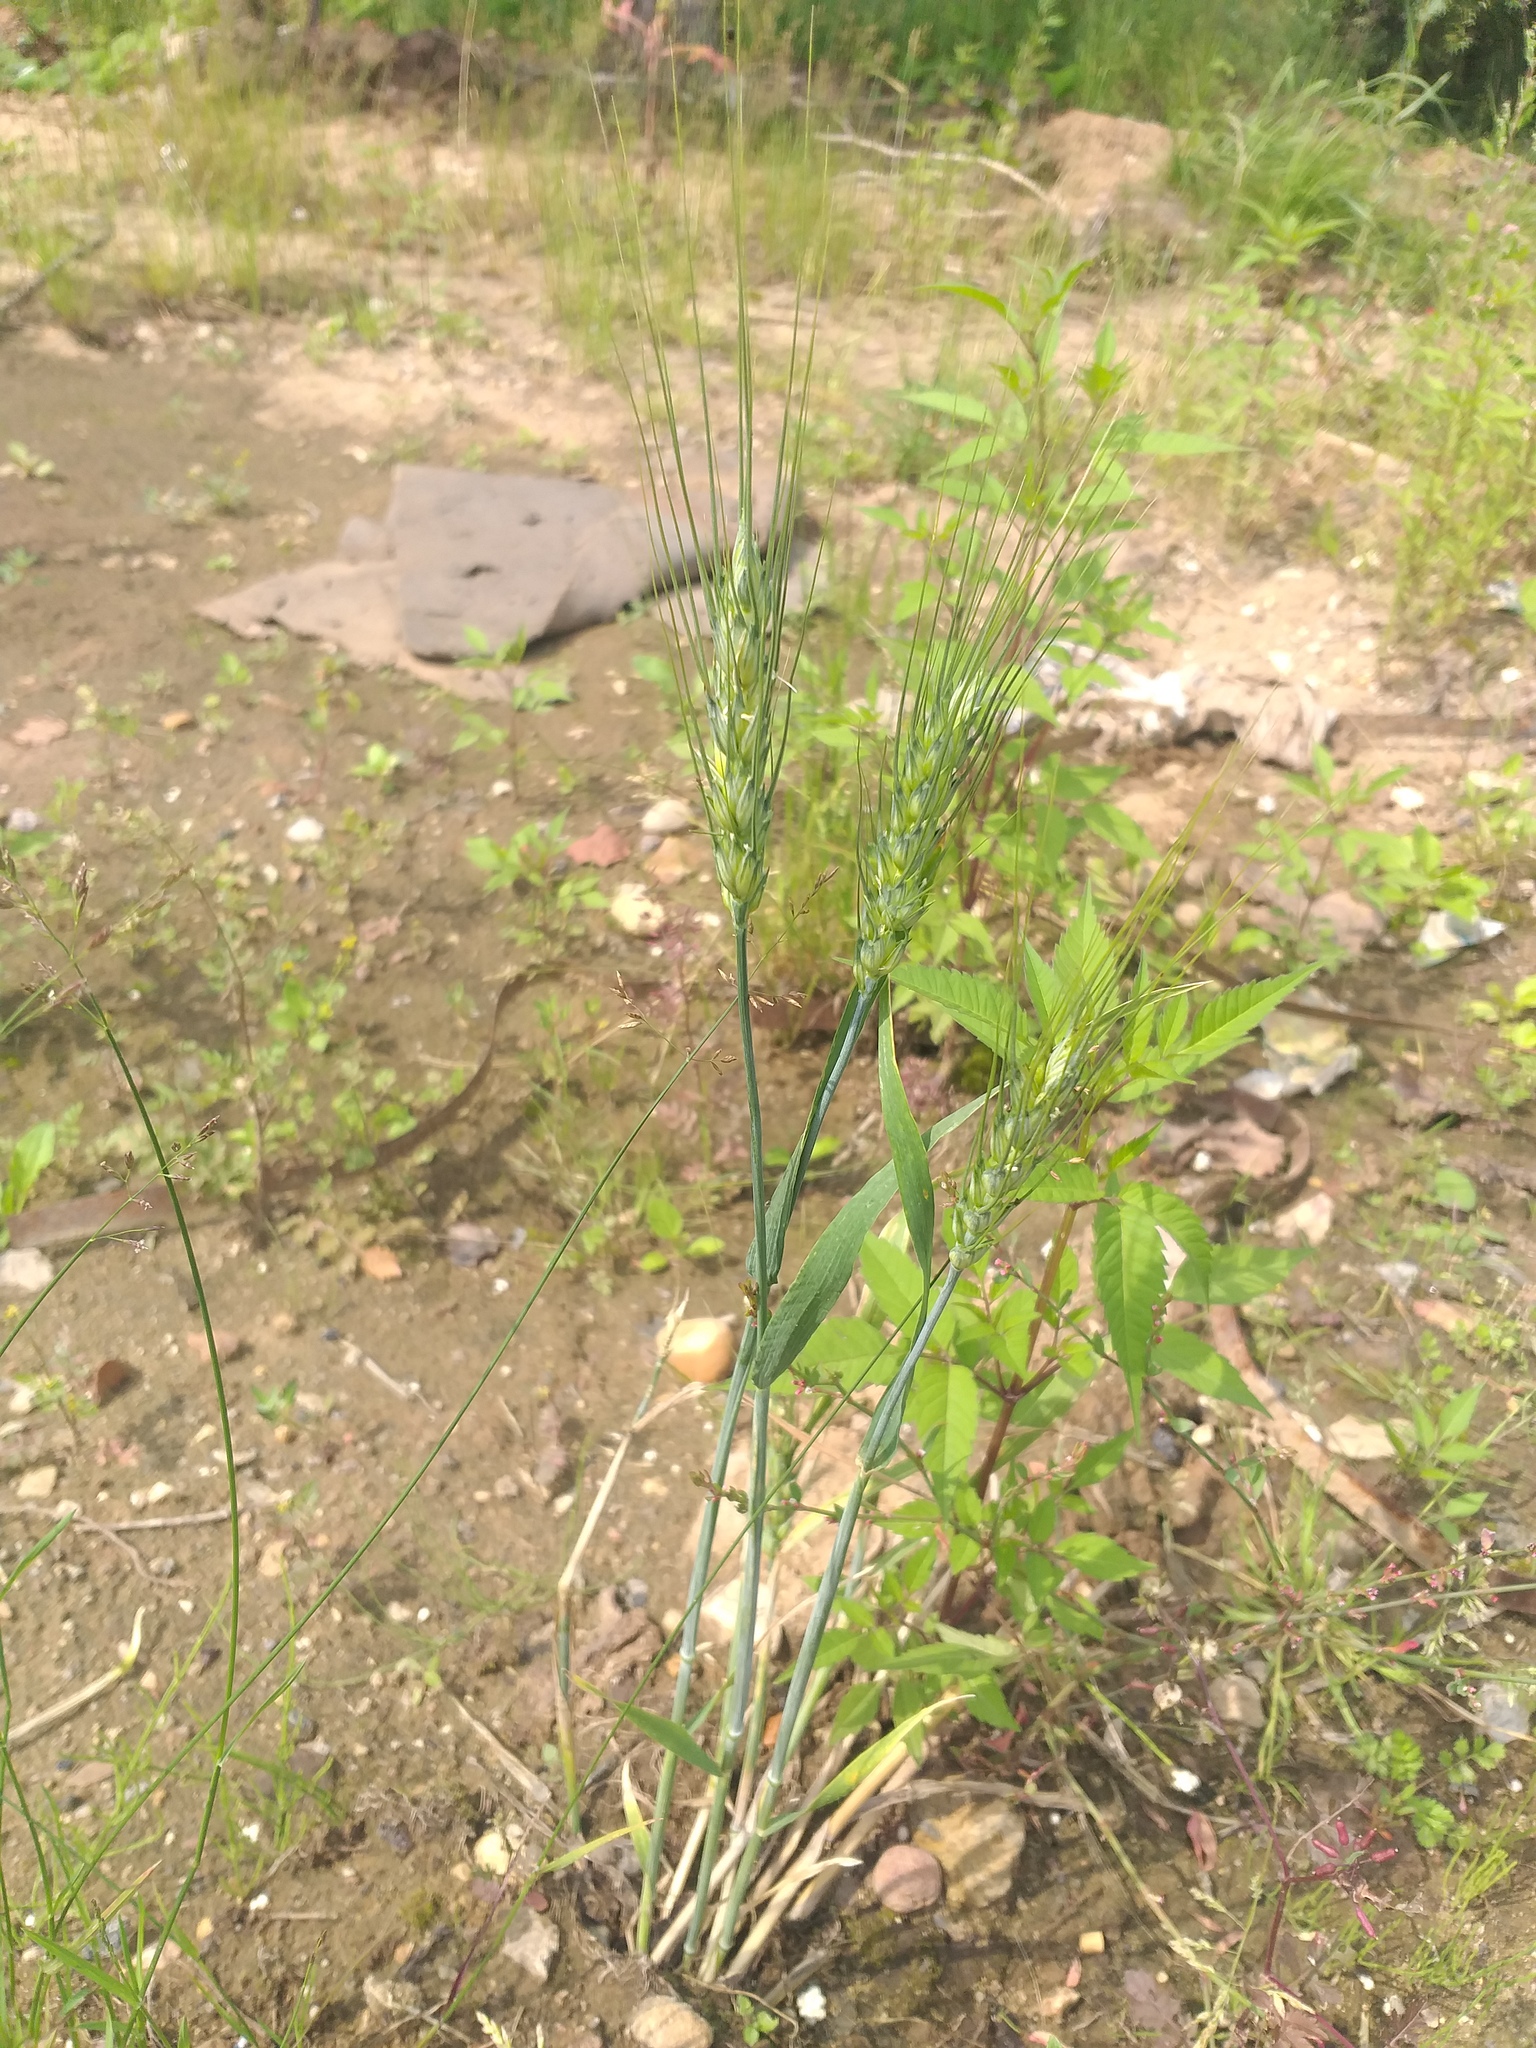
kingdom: Plantae
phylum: Tracheophyta
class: Liliopsida
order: Poales
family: Poaceae
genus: Triticum
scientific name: Triticum aestivum
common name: Common wheat
